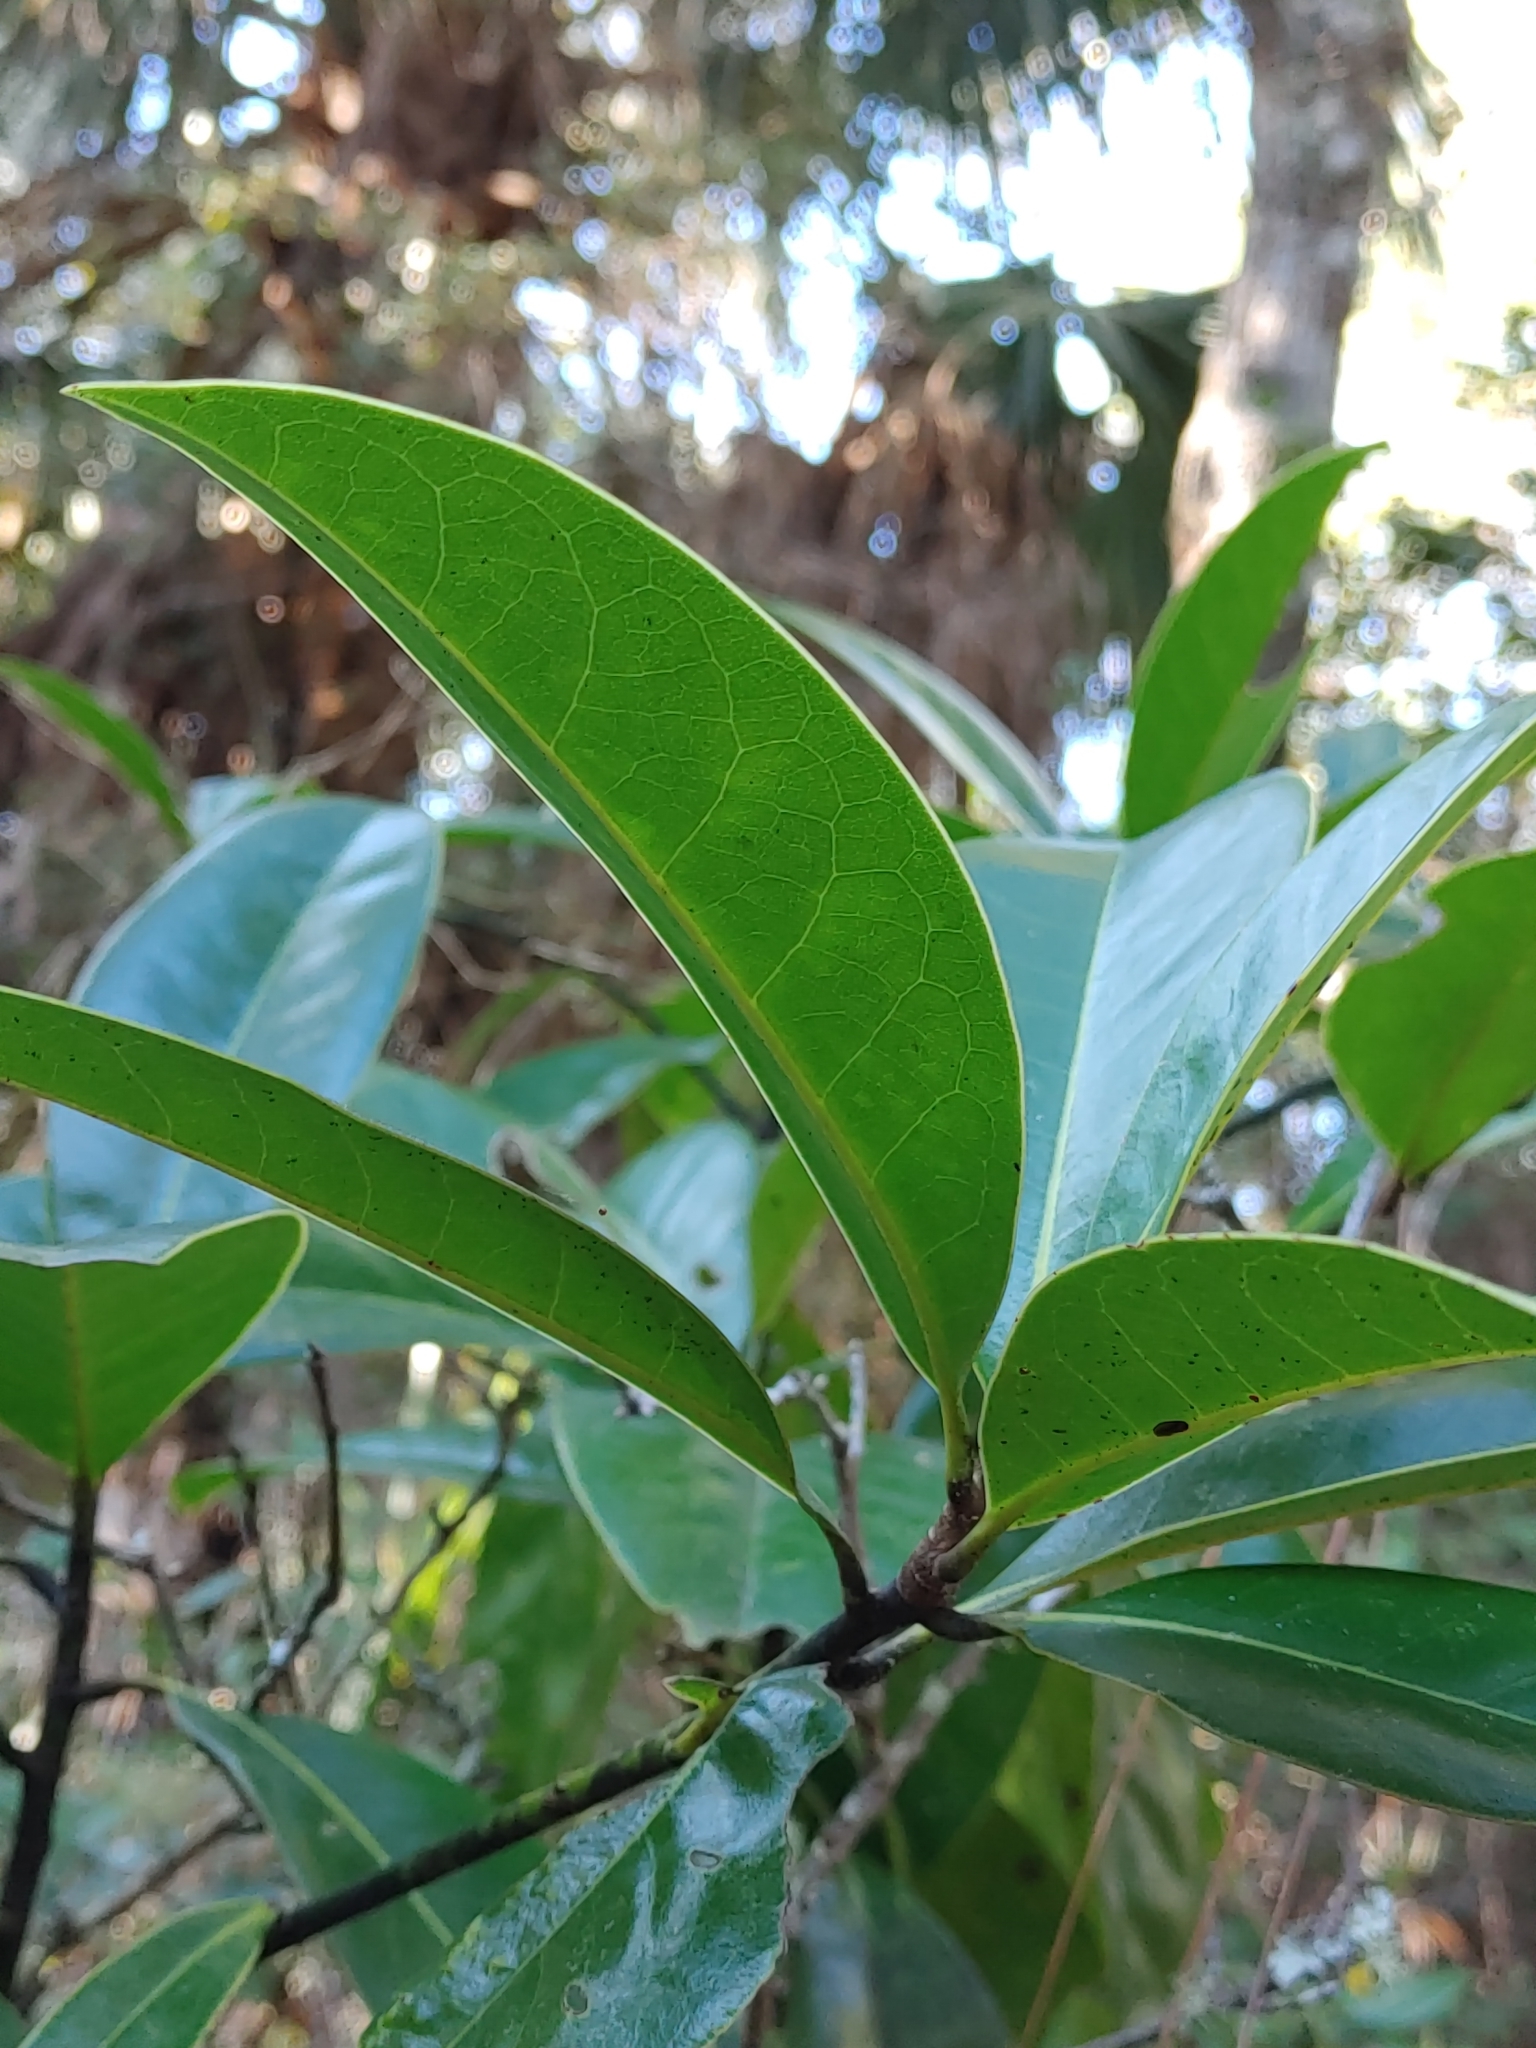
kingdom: Plantae
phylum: Tracheophyta
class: Magnoliopsida
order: Magnoliales
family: Magnoliaceae
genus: Magnolia
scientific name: Magnolia grandiflora
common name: Southern magnolia
